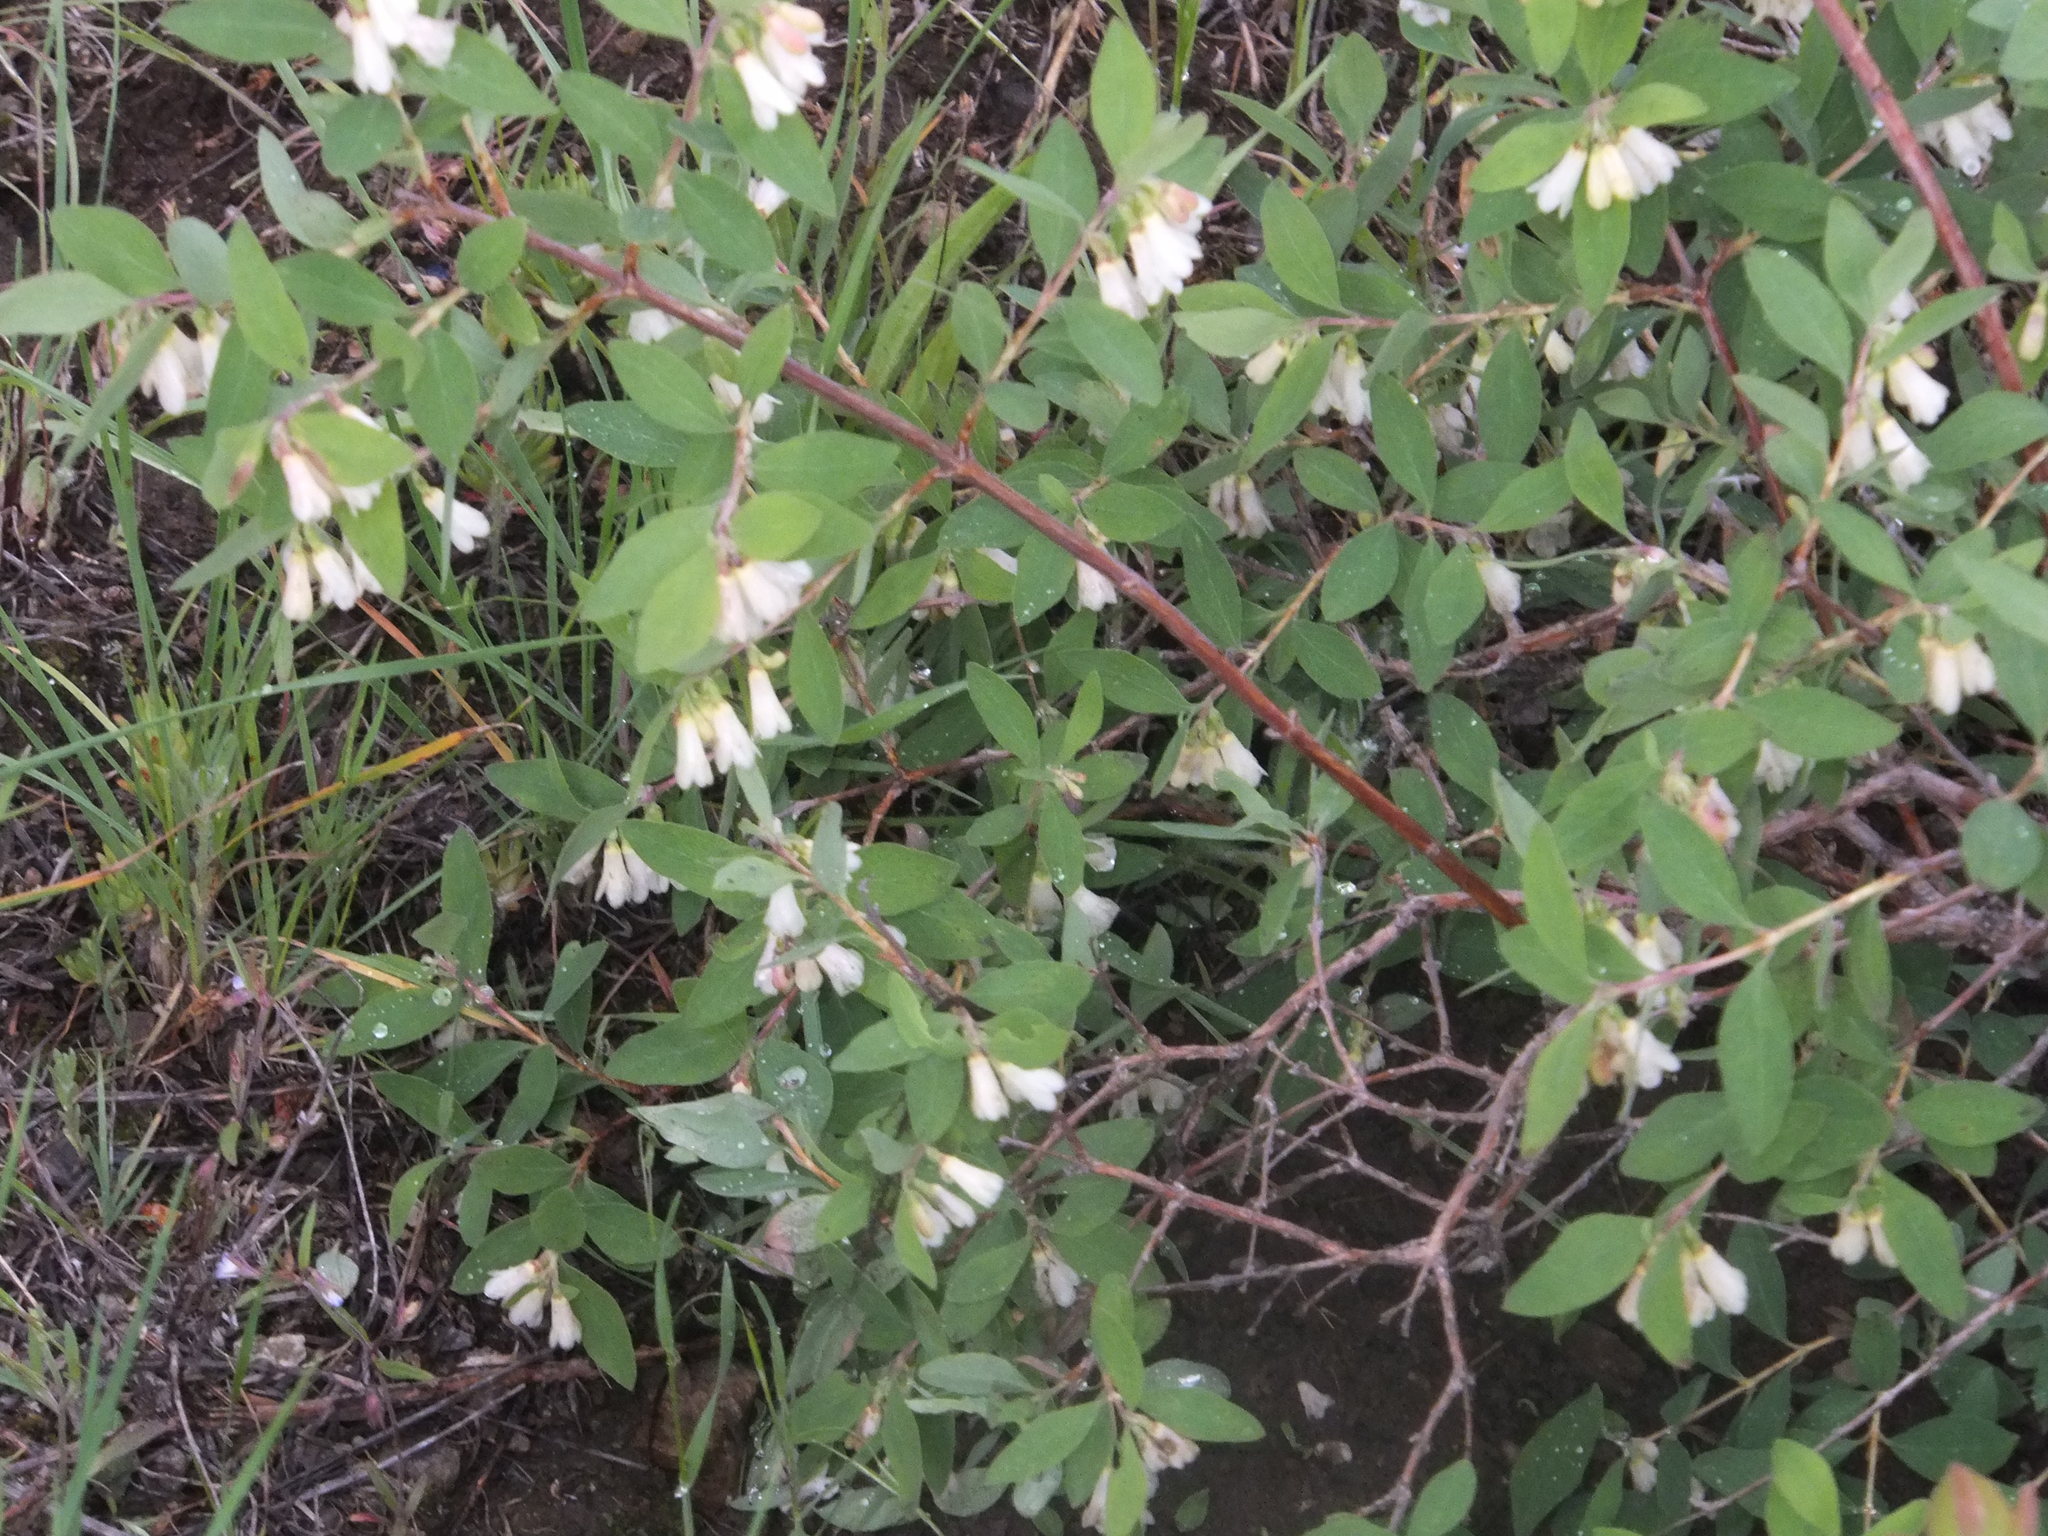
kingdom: Plantae
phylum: Tracheophyta
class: Magnoliopsida
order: Dipsacales
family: Caprifoliaceae
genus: Symphoricarpos
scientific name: Symphoricarpos rotundifolius
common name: Round-leaved snowberry
